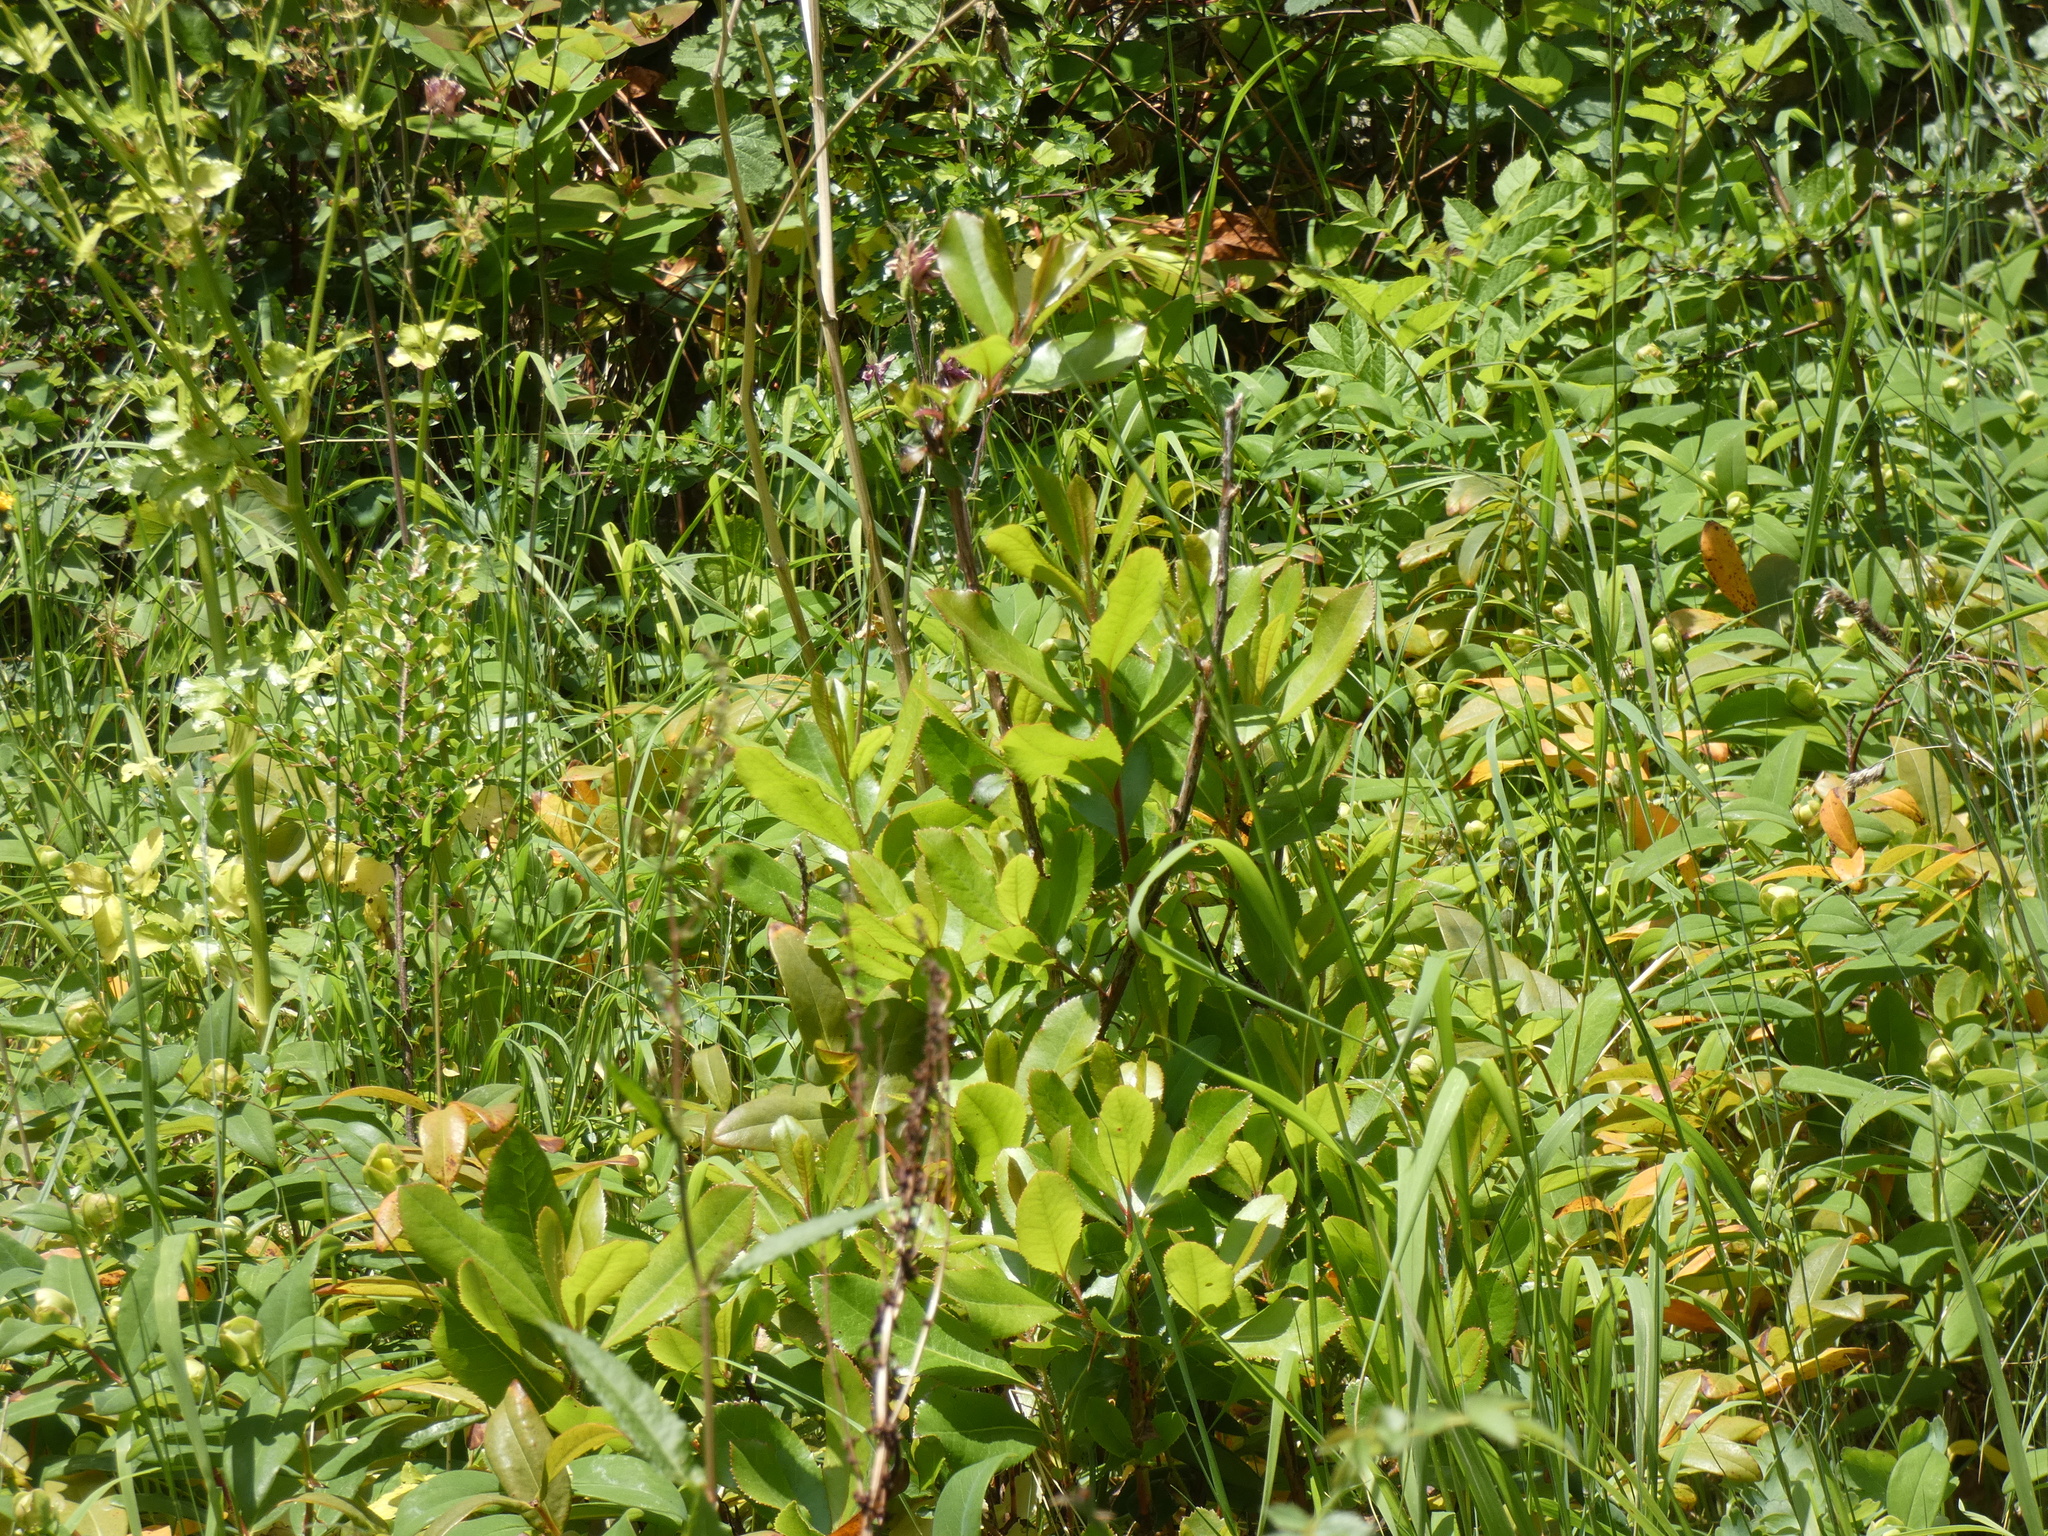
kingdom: Plantae
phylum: Tracheophyta
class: Magnoliopsida
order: Ericales
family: Ericaceae
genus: Arbutus
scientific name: Arbutus unedo
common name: Strawberry-tree
